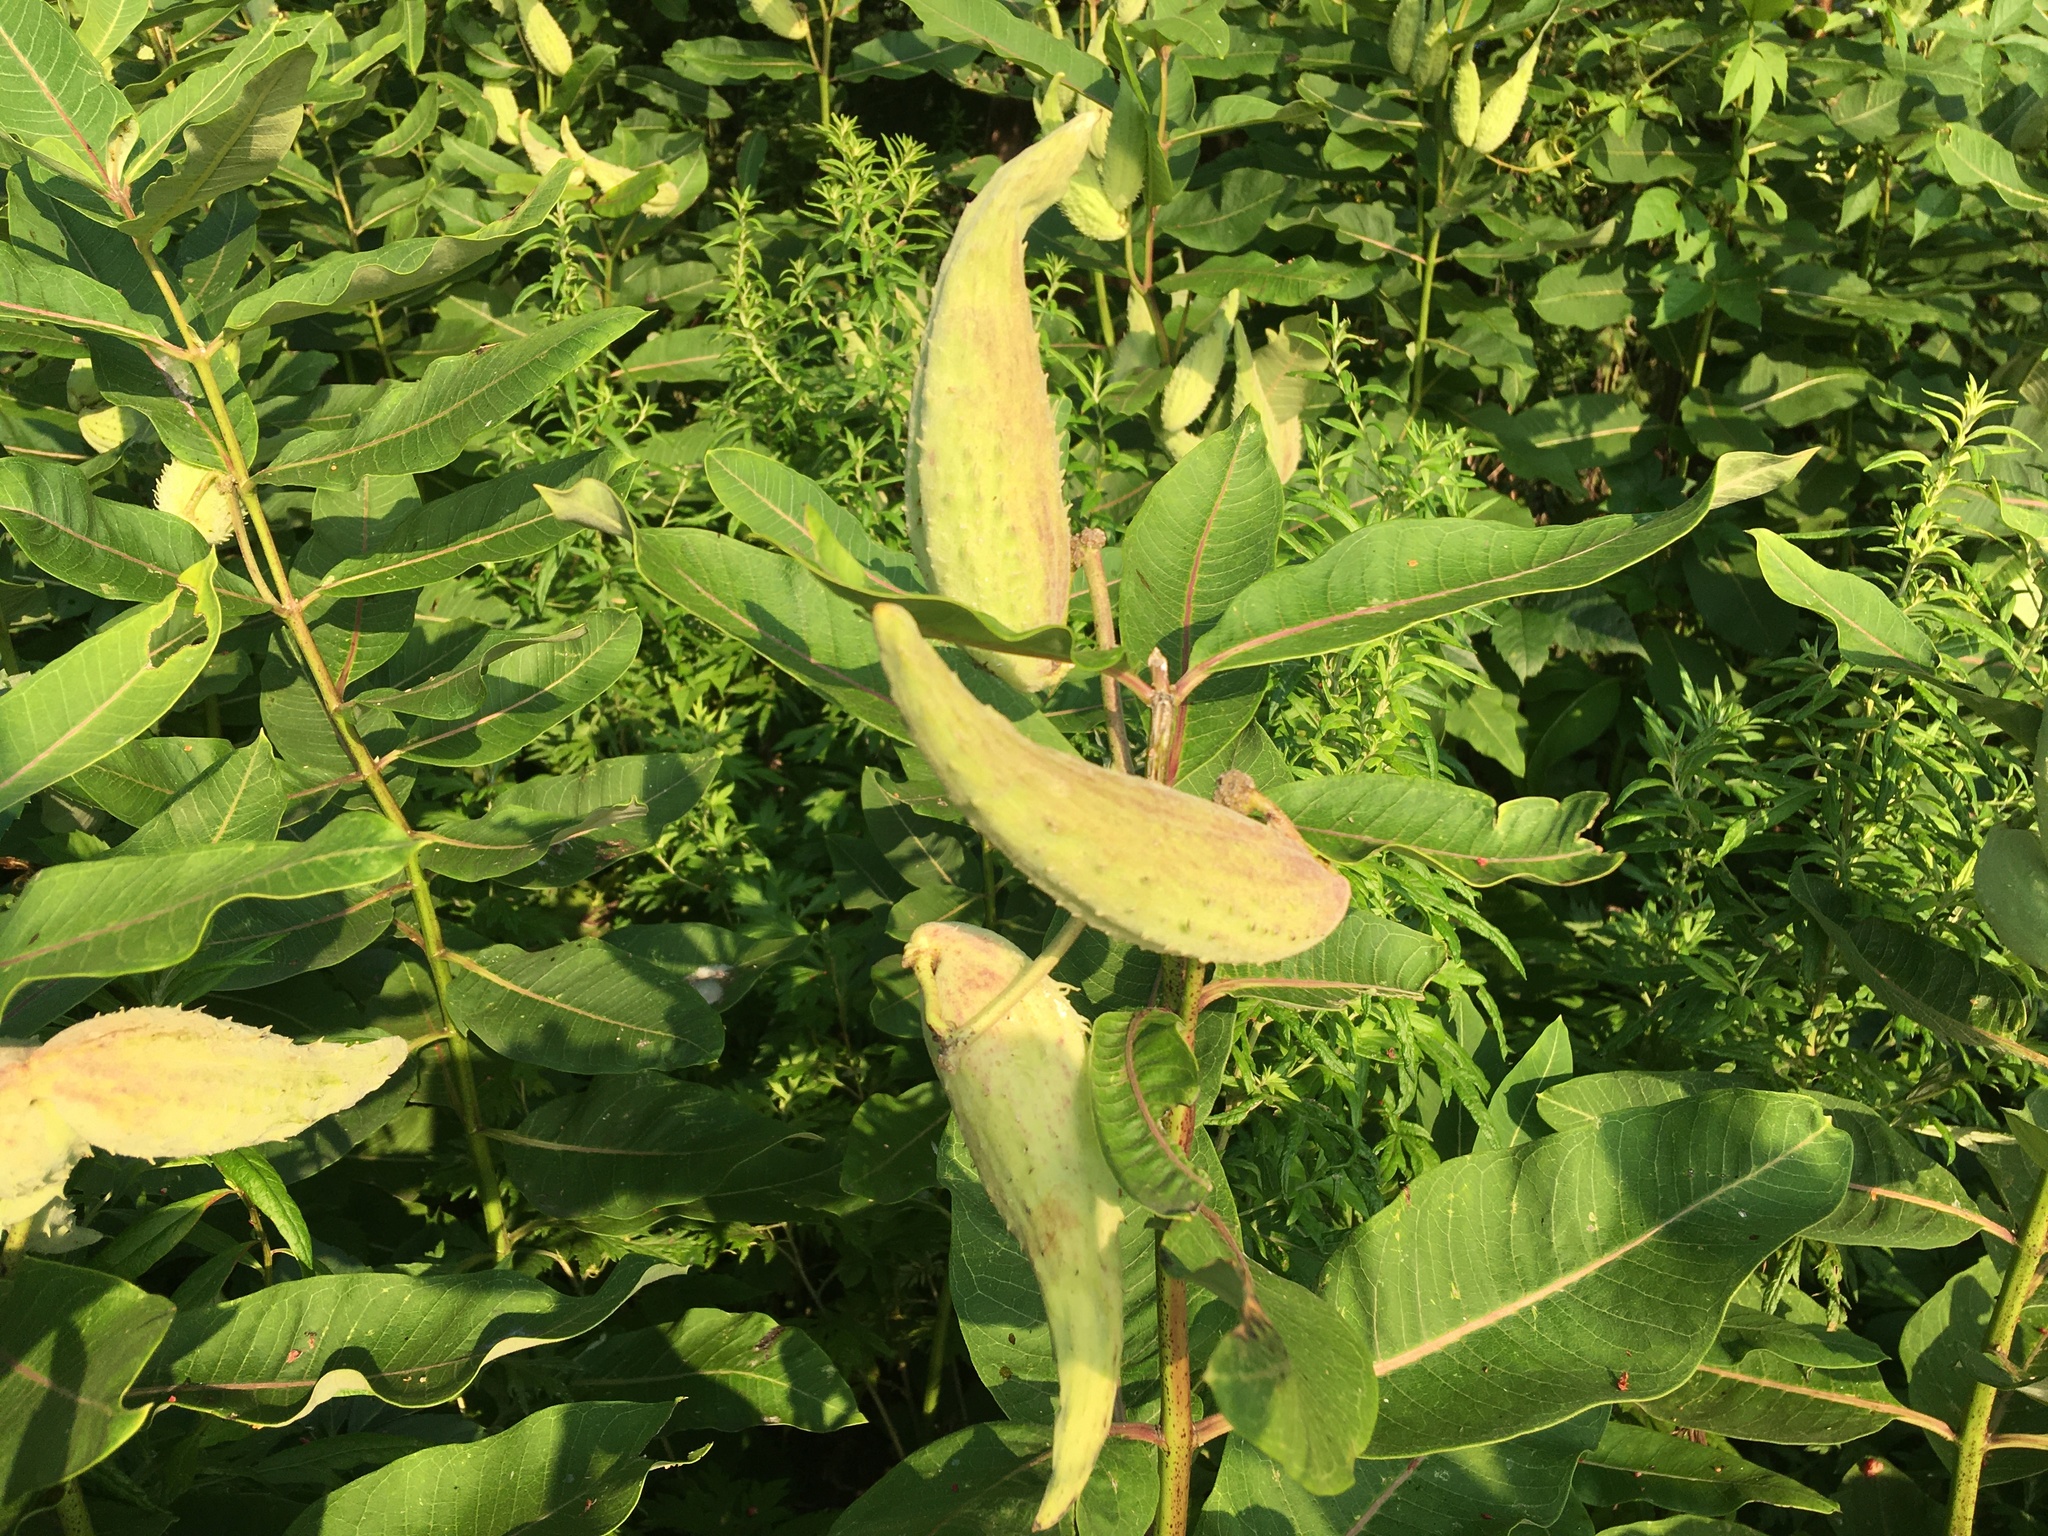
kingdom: Plantae
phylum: Tracheophyta
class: Magnoliopsida
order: Gentianales
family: Apocynaceae
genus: Asclepias
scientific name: Asclepias syriaca
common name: Common milkweed
